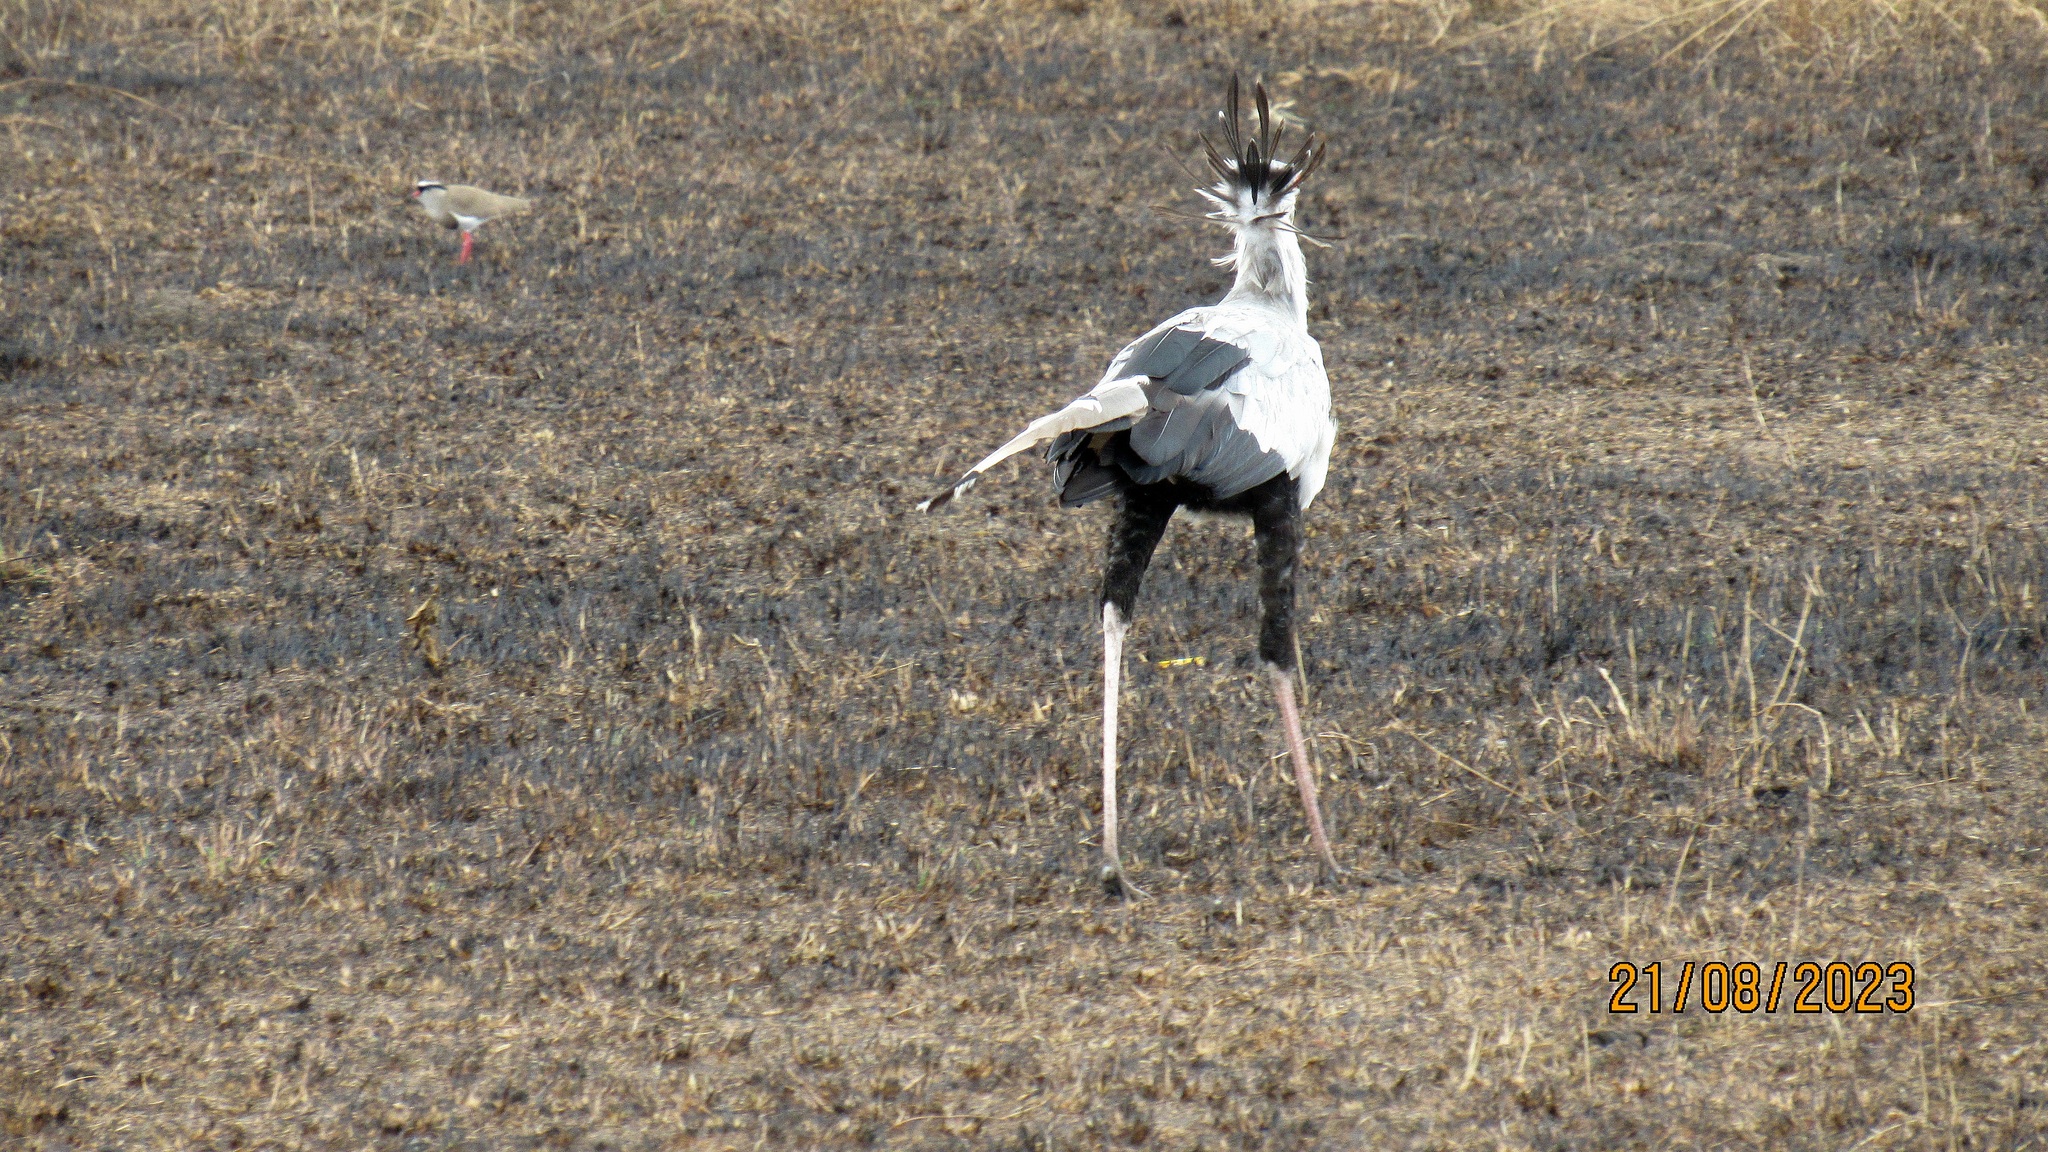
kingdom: Animalia
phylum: Chordata
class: Aves
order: Accipitriformes
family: Sagittariidae
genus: Sagittarius
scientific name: Sagittarius serpentarius
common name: Secretarybird
